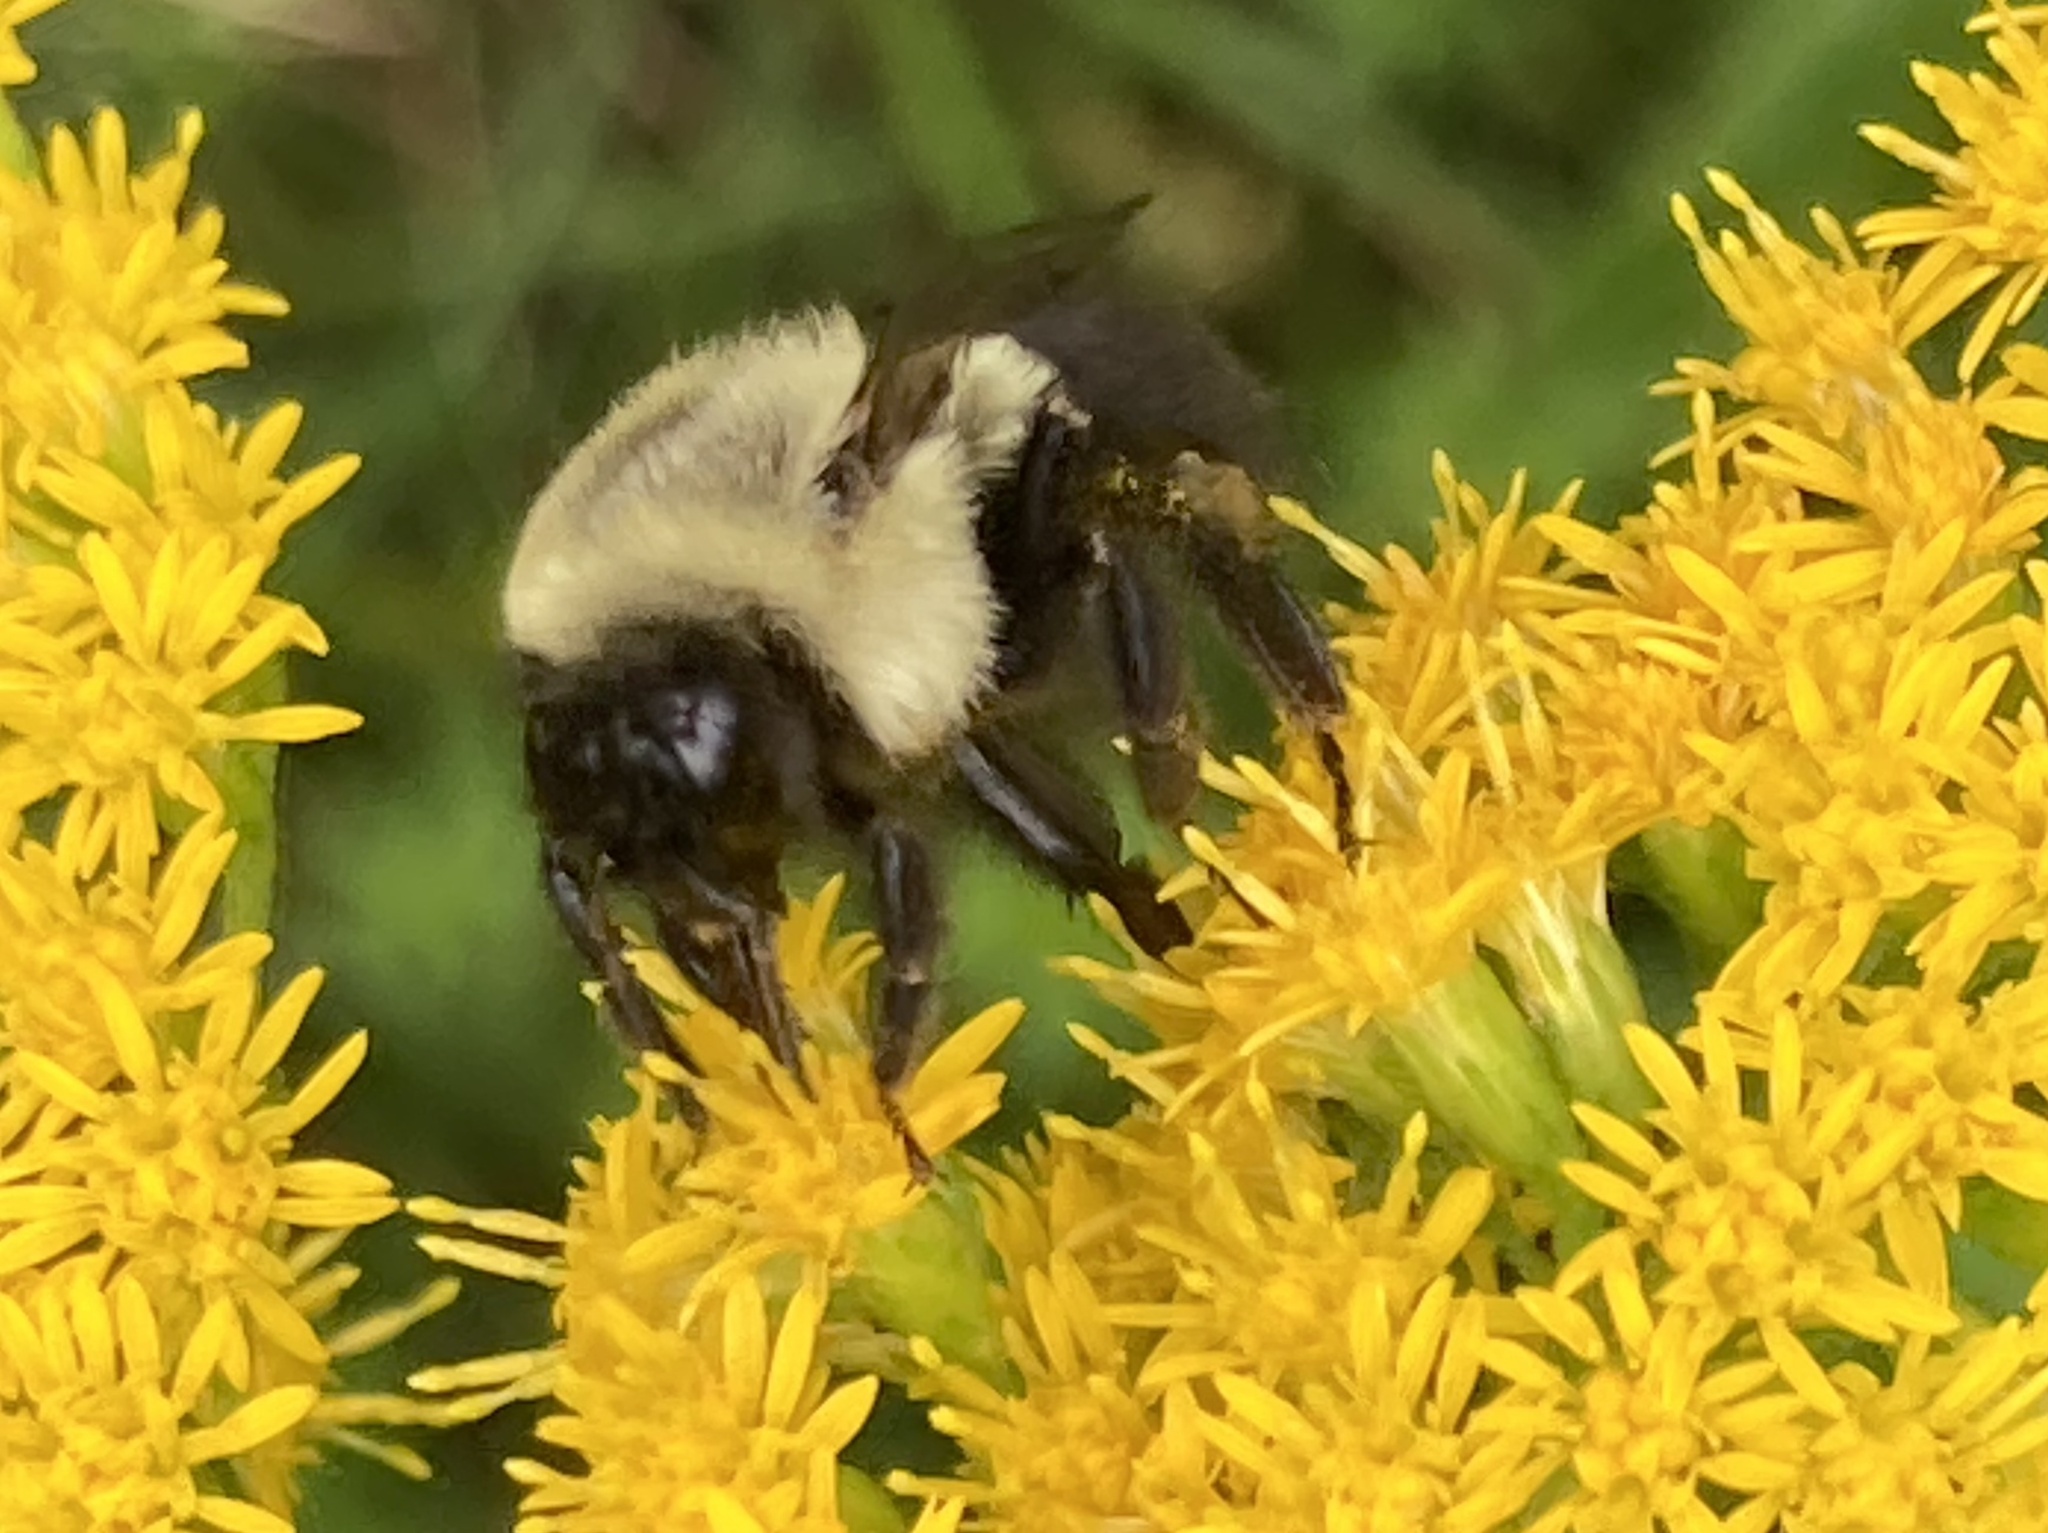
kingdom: Animalia
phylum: Arthropoda
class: Insecta
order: Hymenoptera
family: Apidae
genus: Bombus
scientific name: Bombus impatiens
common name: Common eastern bumble bee
